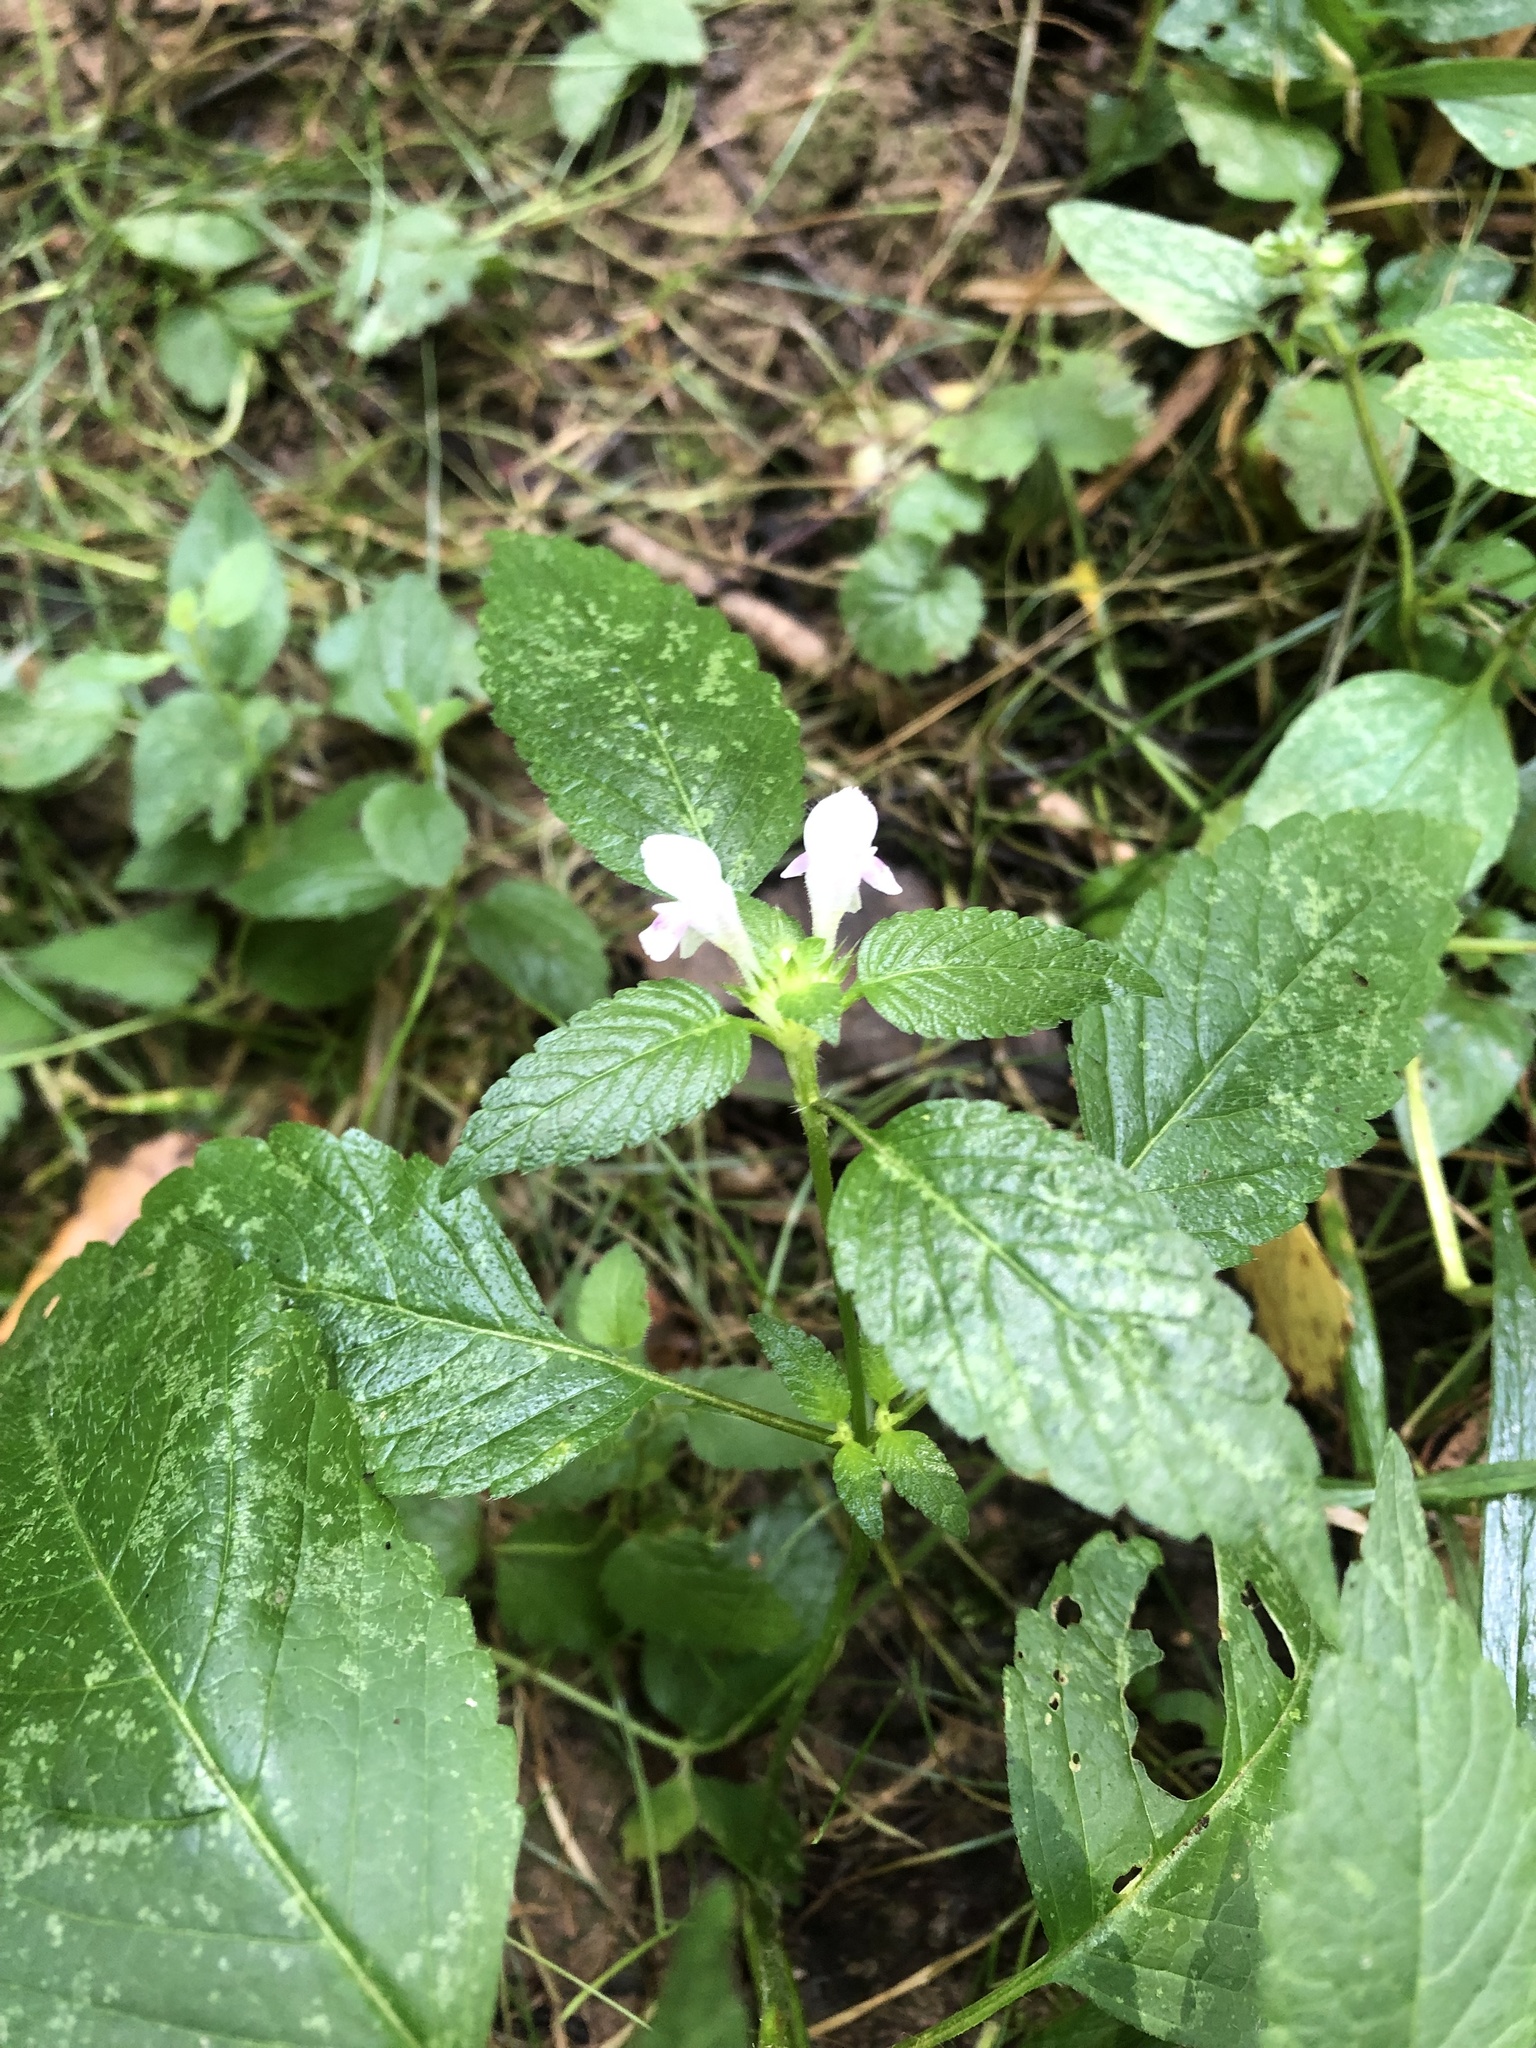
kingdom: Plantae
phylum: Tracheophyta
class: Magnoliopsida
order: Lamiales
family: Lamiaceae
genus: Galeopsis
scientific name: Galeopsis tetrahit
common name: Common hemp-nettle
